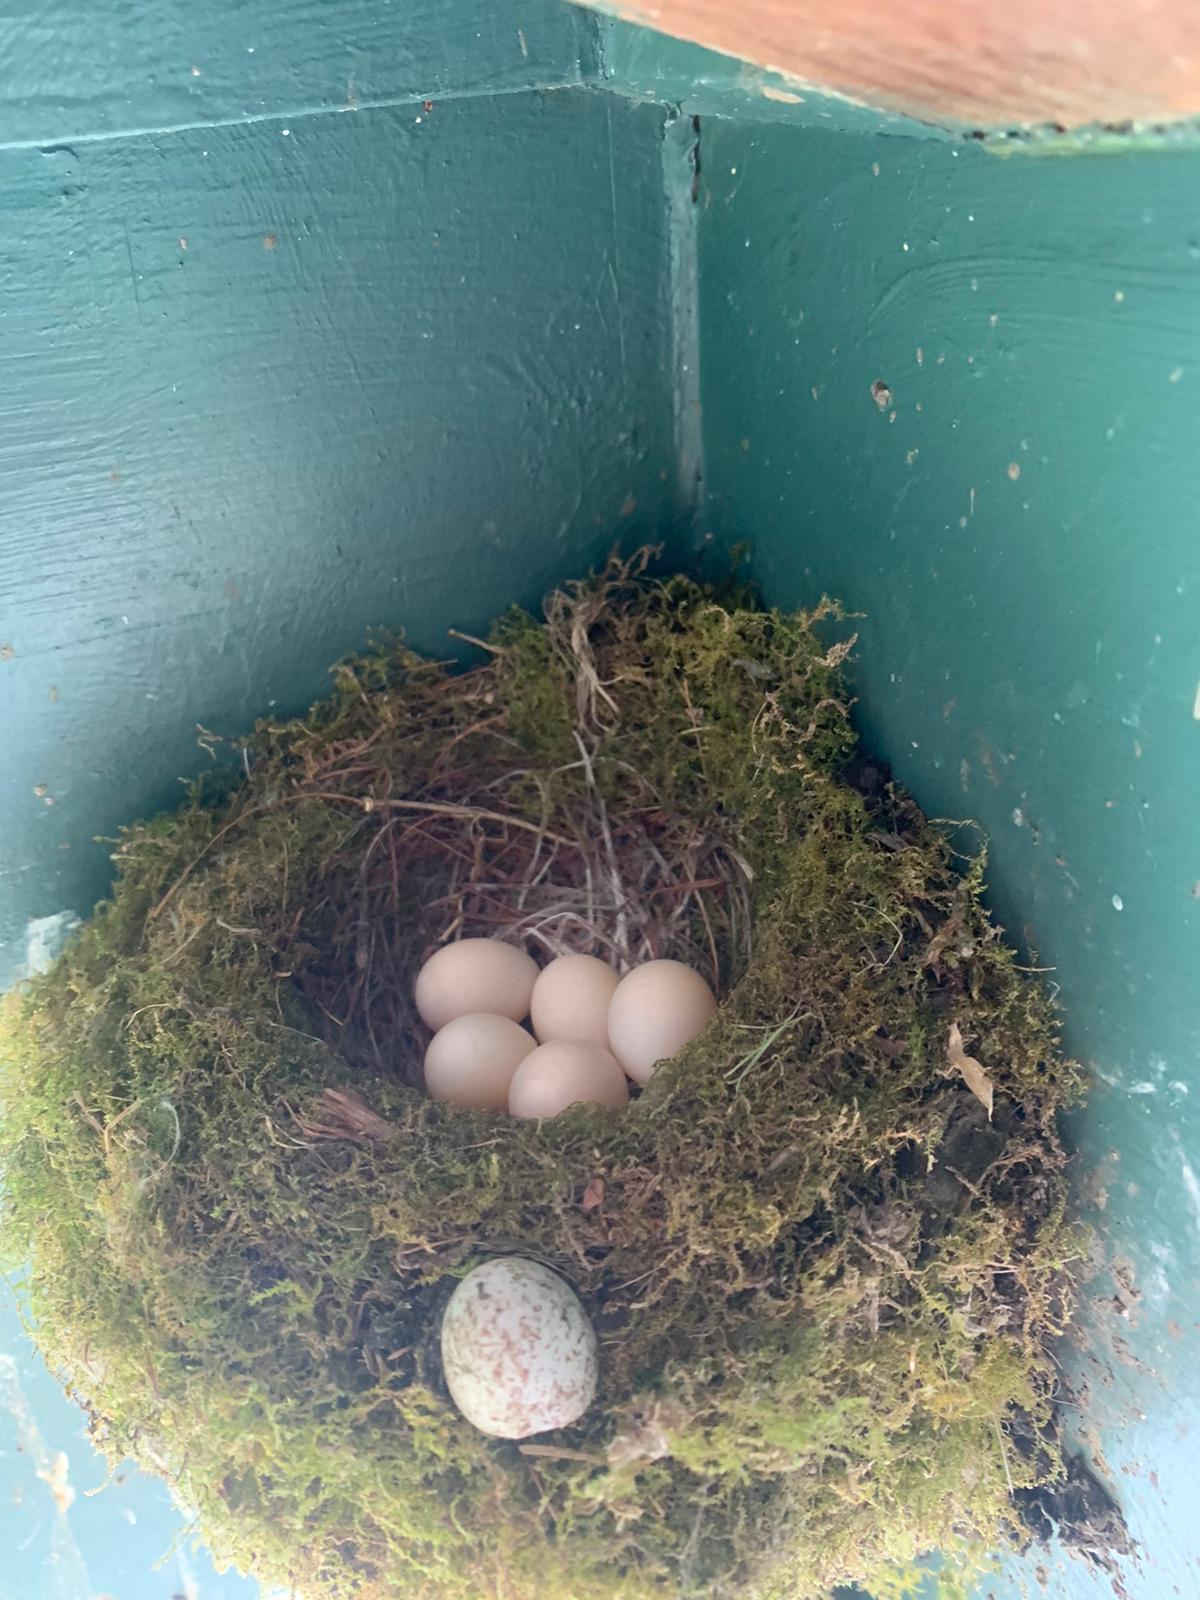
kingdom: Animalia
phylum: Chordata
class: Aves
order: Passeriformes
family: Icteridae
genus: Molothrus
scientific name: Molothrus ater
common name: Brown-headed cowbird
